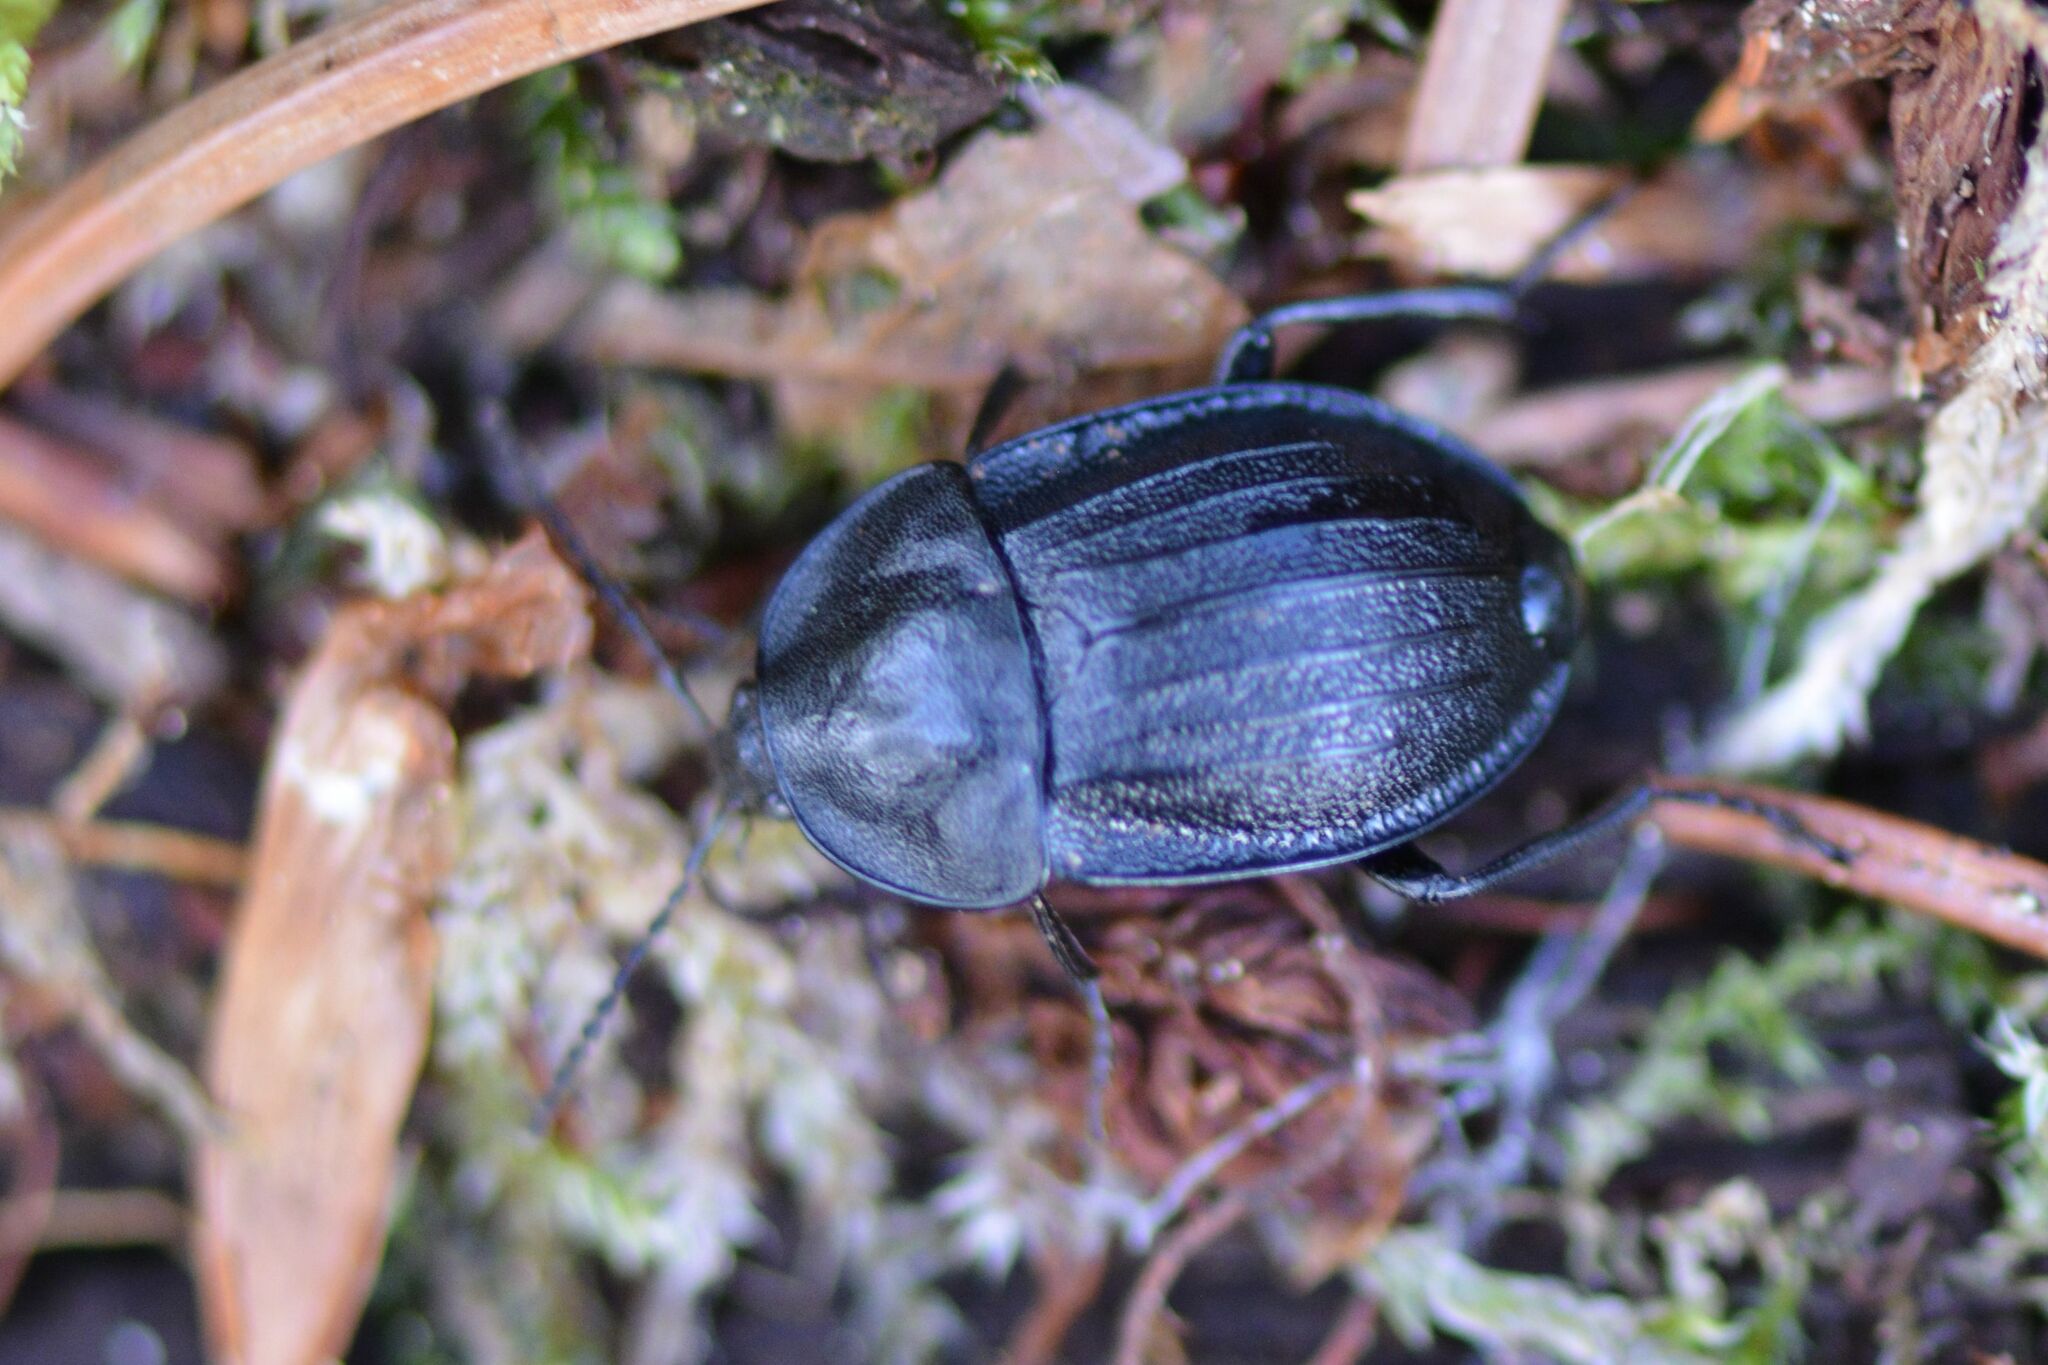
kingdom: Animalia
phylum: Arthropoda
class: Insecta
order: Coleoptera
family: Staphylinidae
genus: Silpha
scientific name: Silpha atrata
